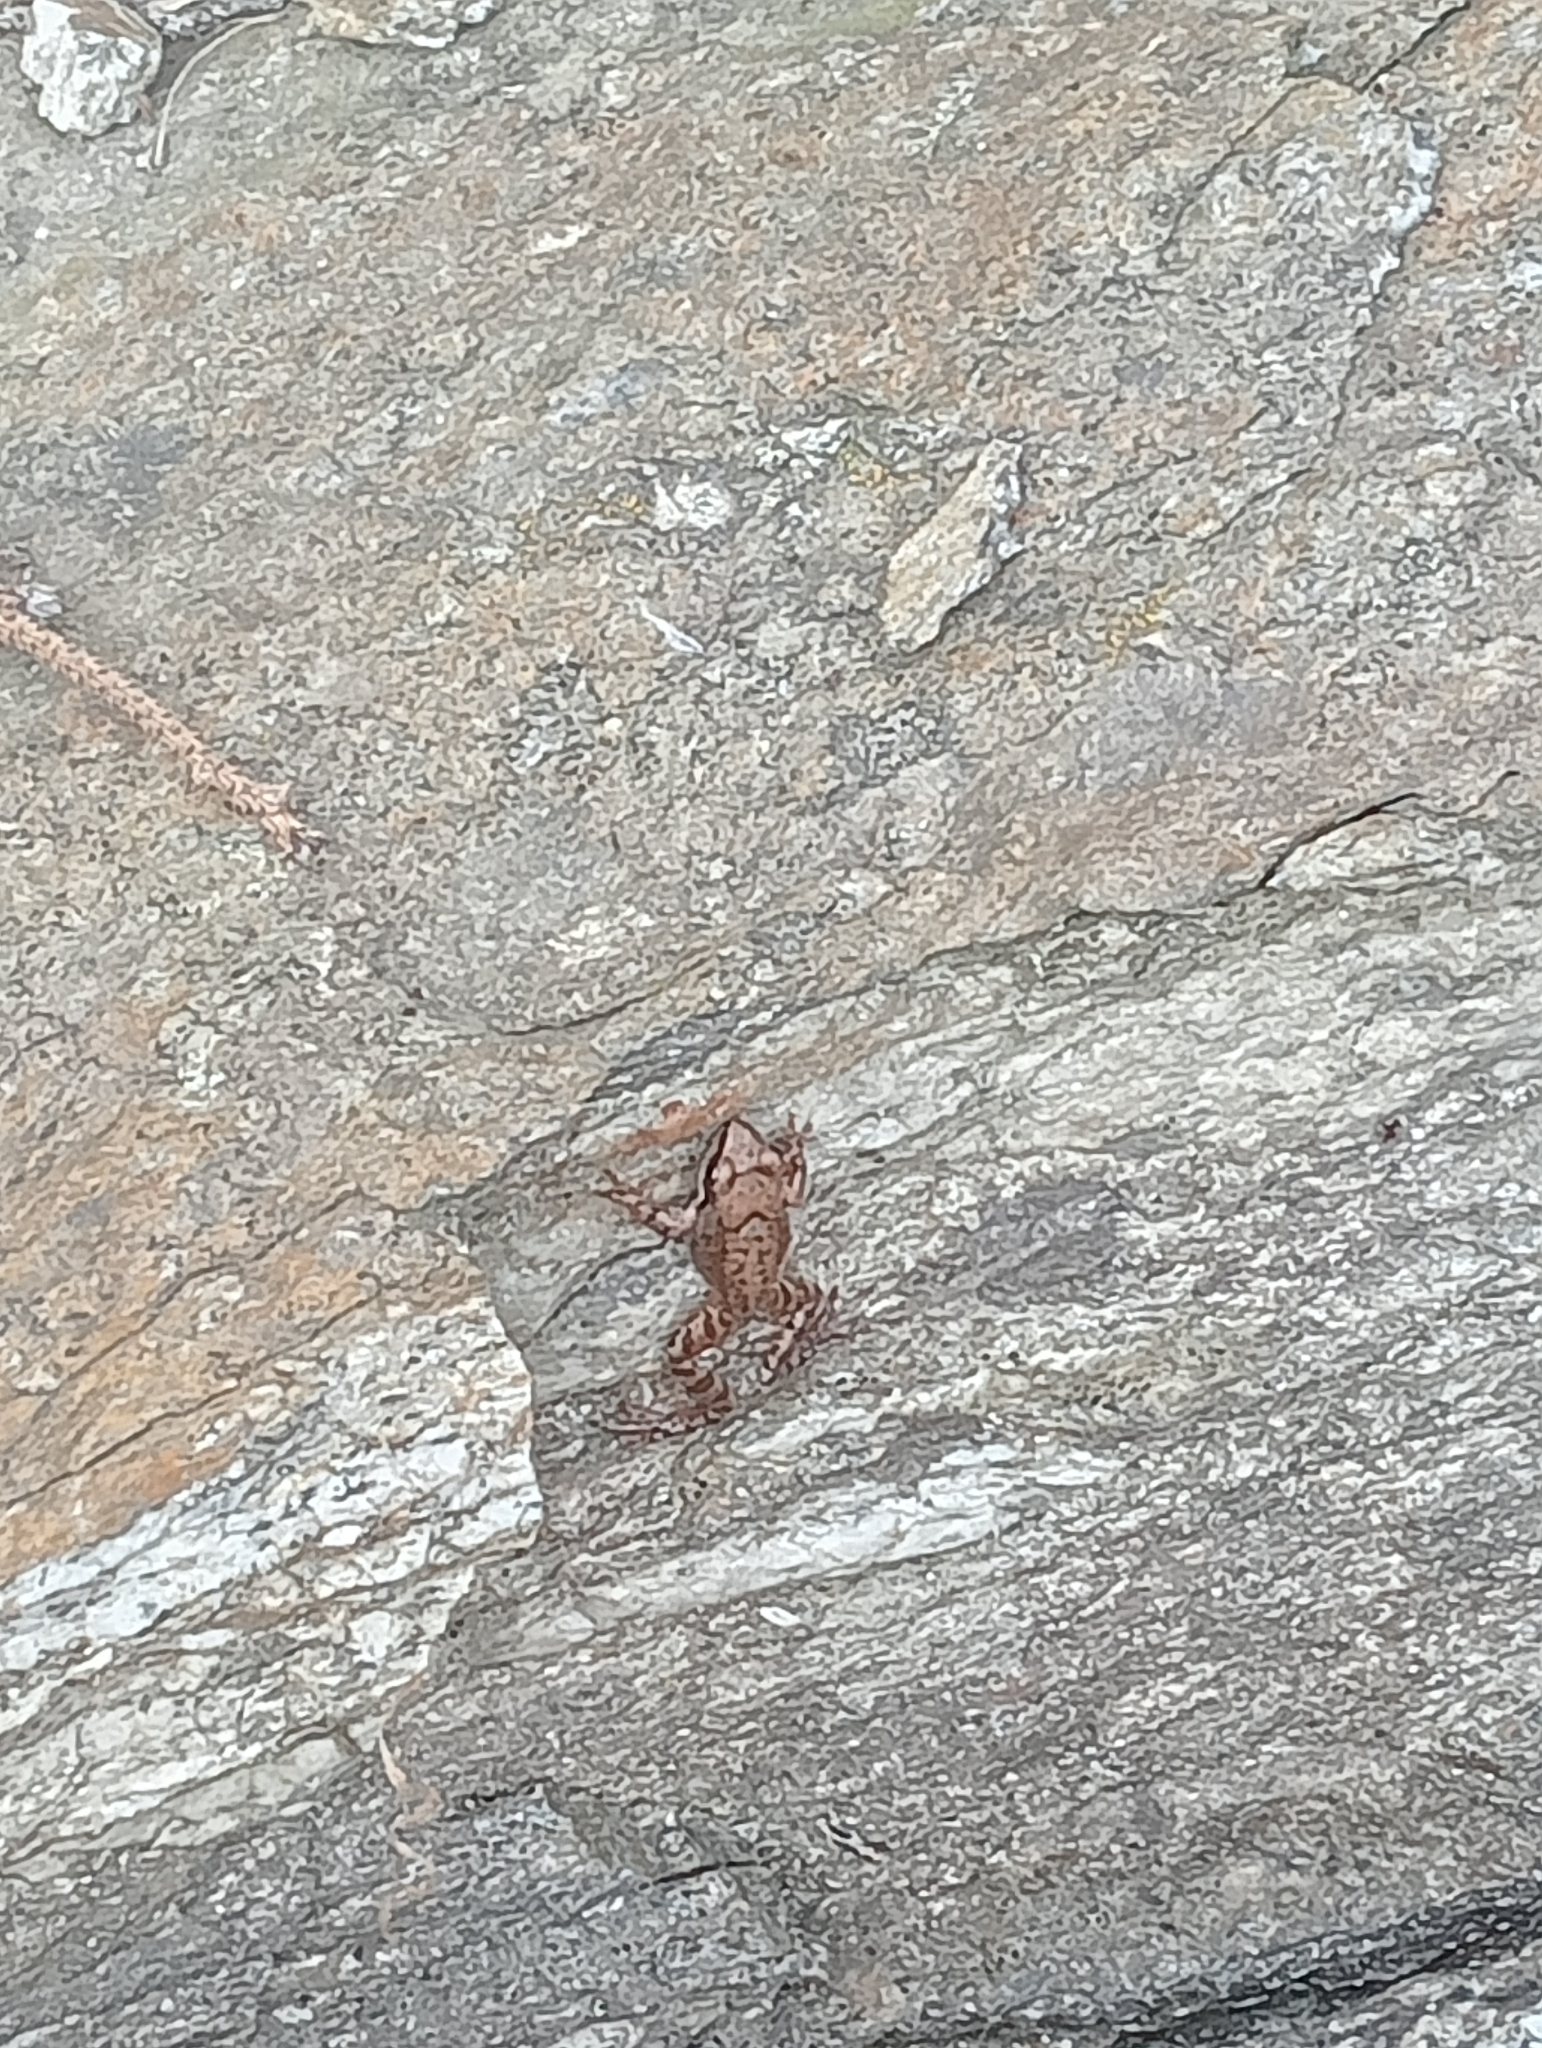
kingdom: Animalia
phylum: Chordata
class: Amphibia
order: Anura
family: Ranidae
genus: Rana
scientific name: Rana temporaria
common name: Common frog
